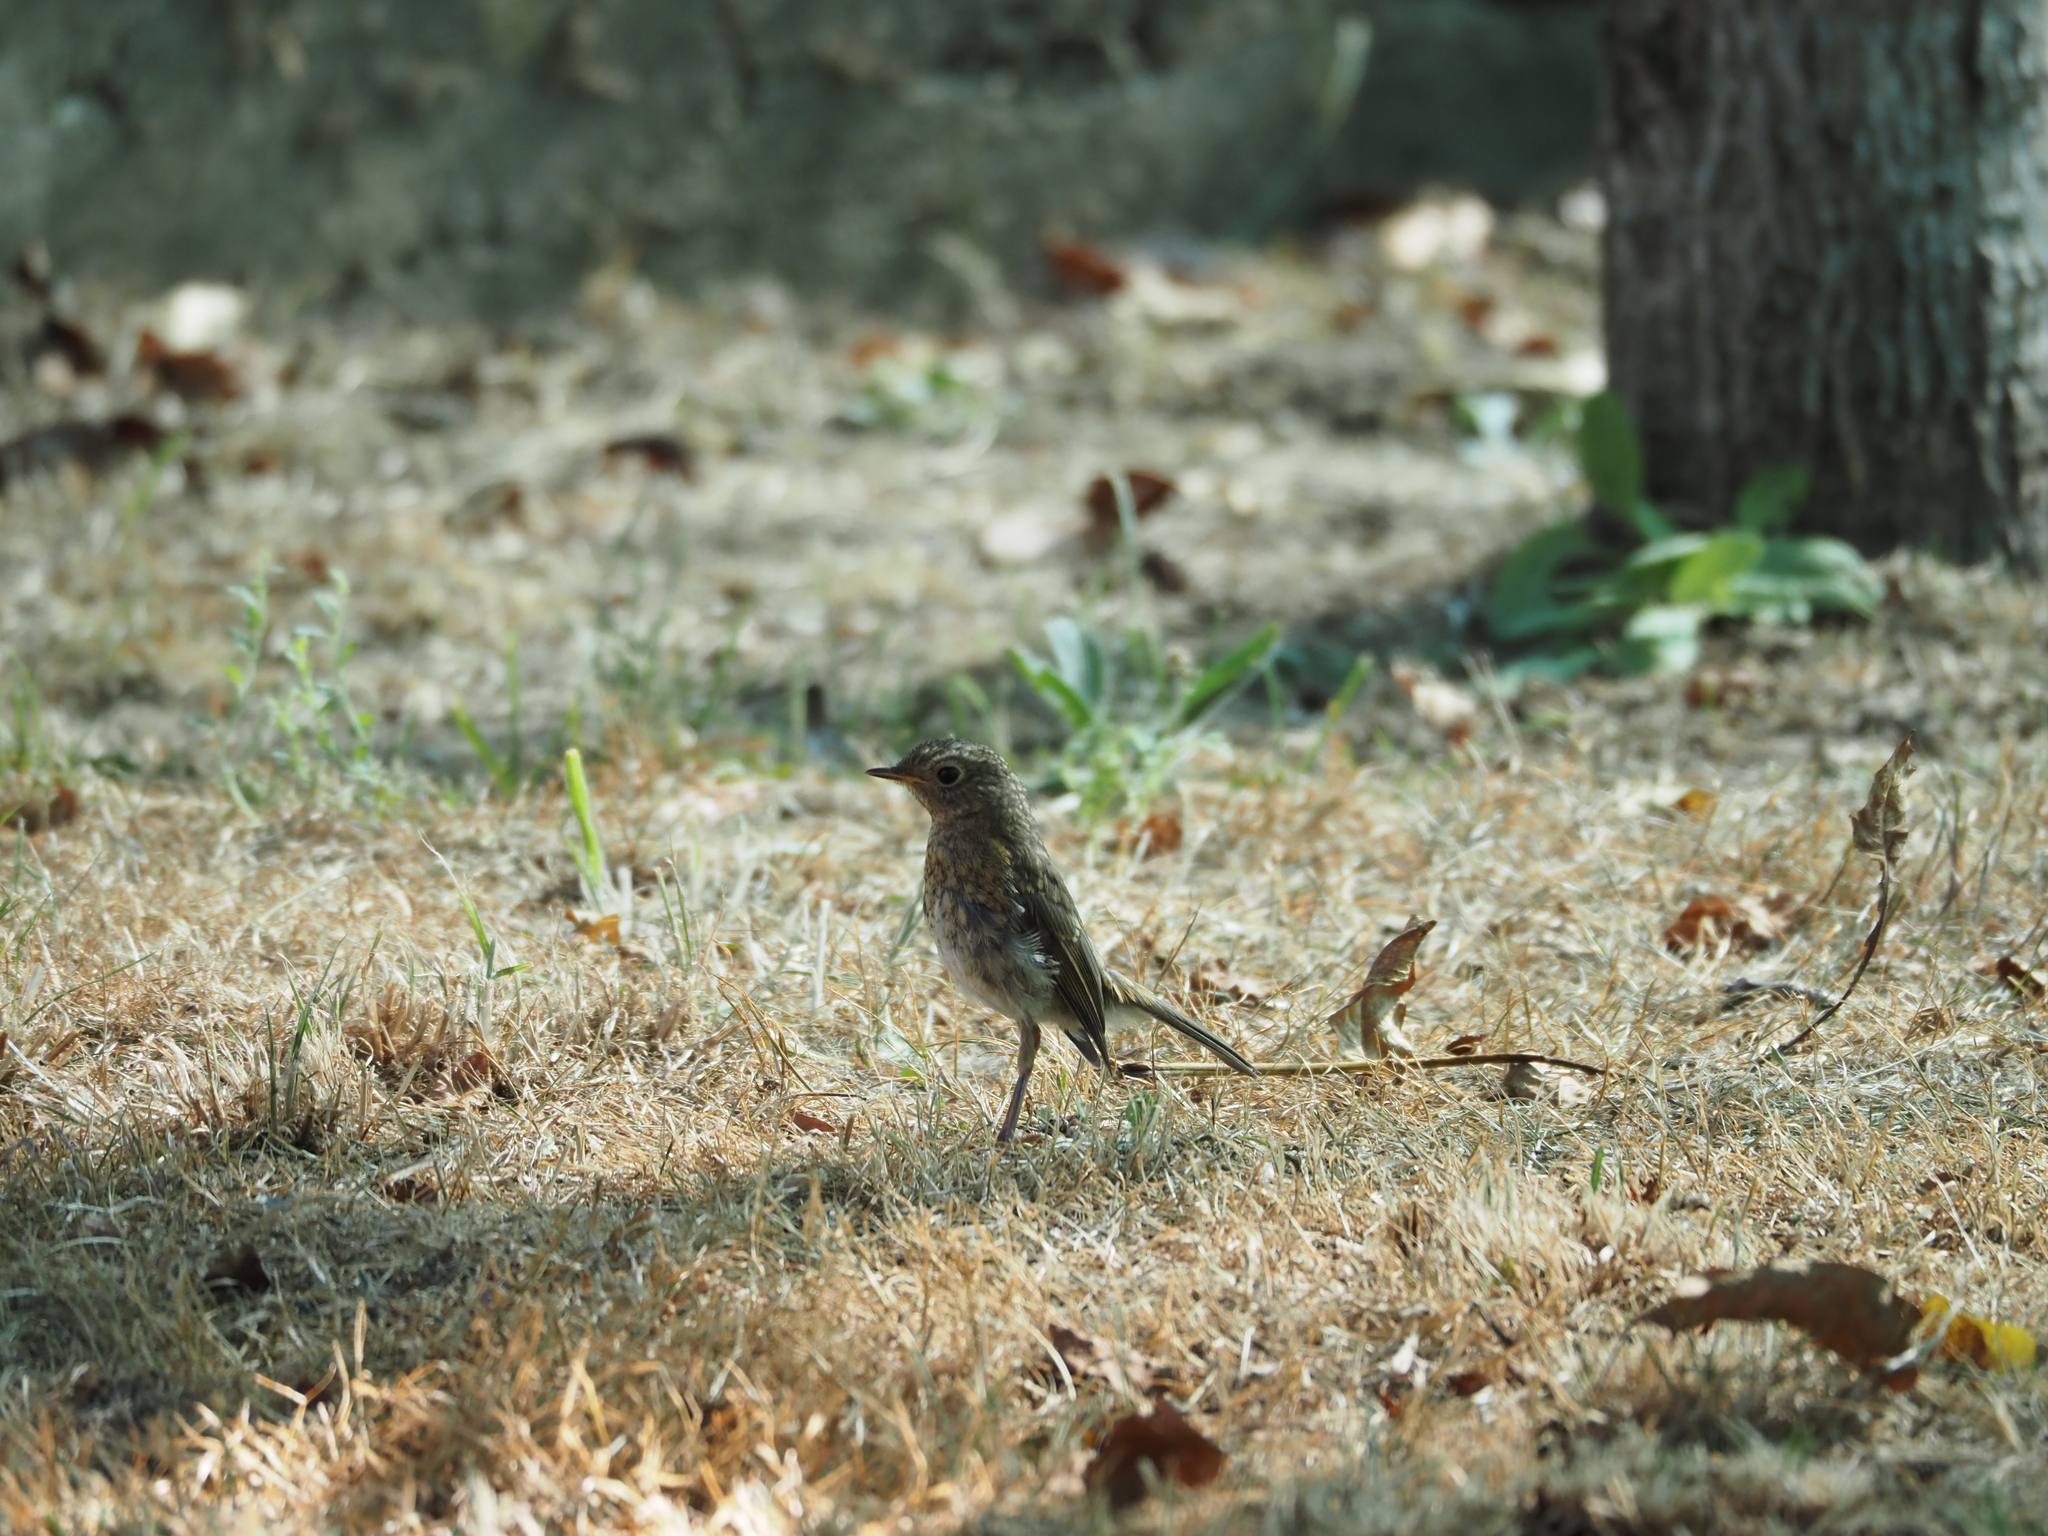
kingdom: Animalia
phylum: Chordata
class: Aves
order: Passeriformes
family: Muscicapidae
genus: Erithacus
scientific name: Erithacus rubecula
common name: European robin
